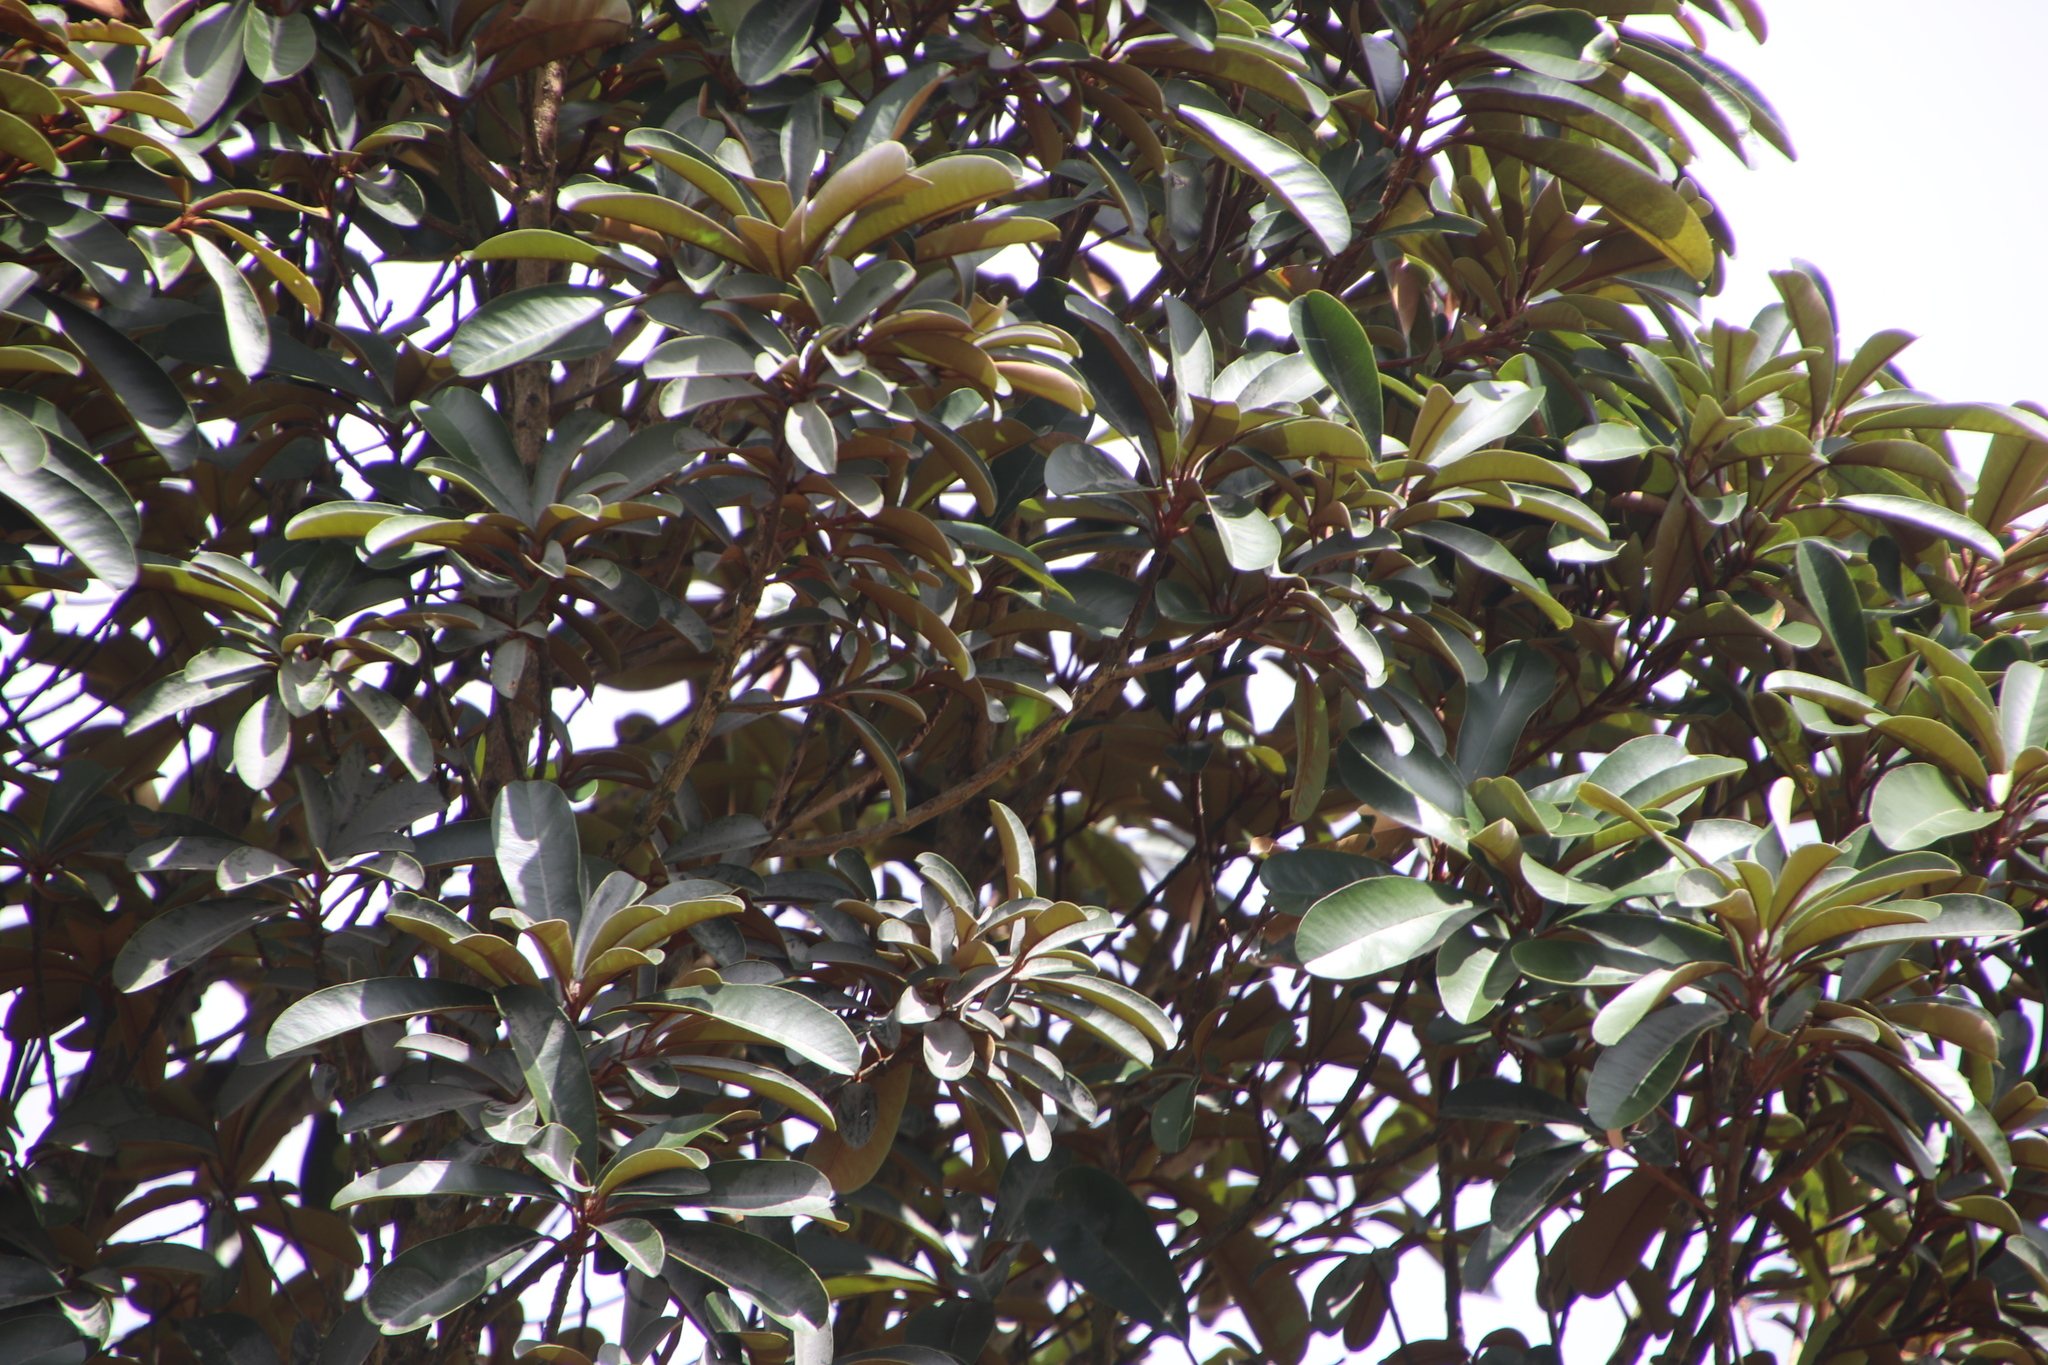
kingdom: Plantae
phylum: Tracheophyta
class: Magnoliopsida
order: Ericales
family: Sapotaceae
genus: Englerophytum
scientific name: Englerophytum magalismontanum
